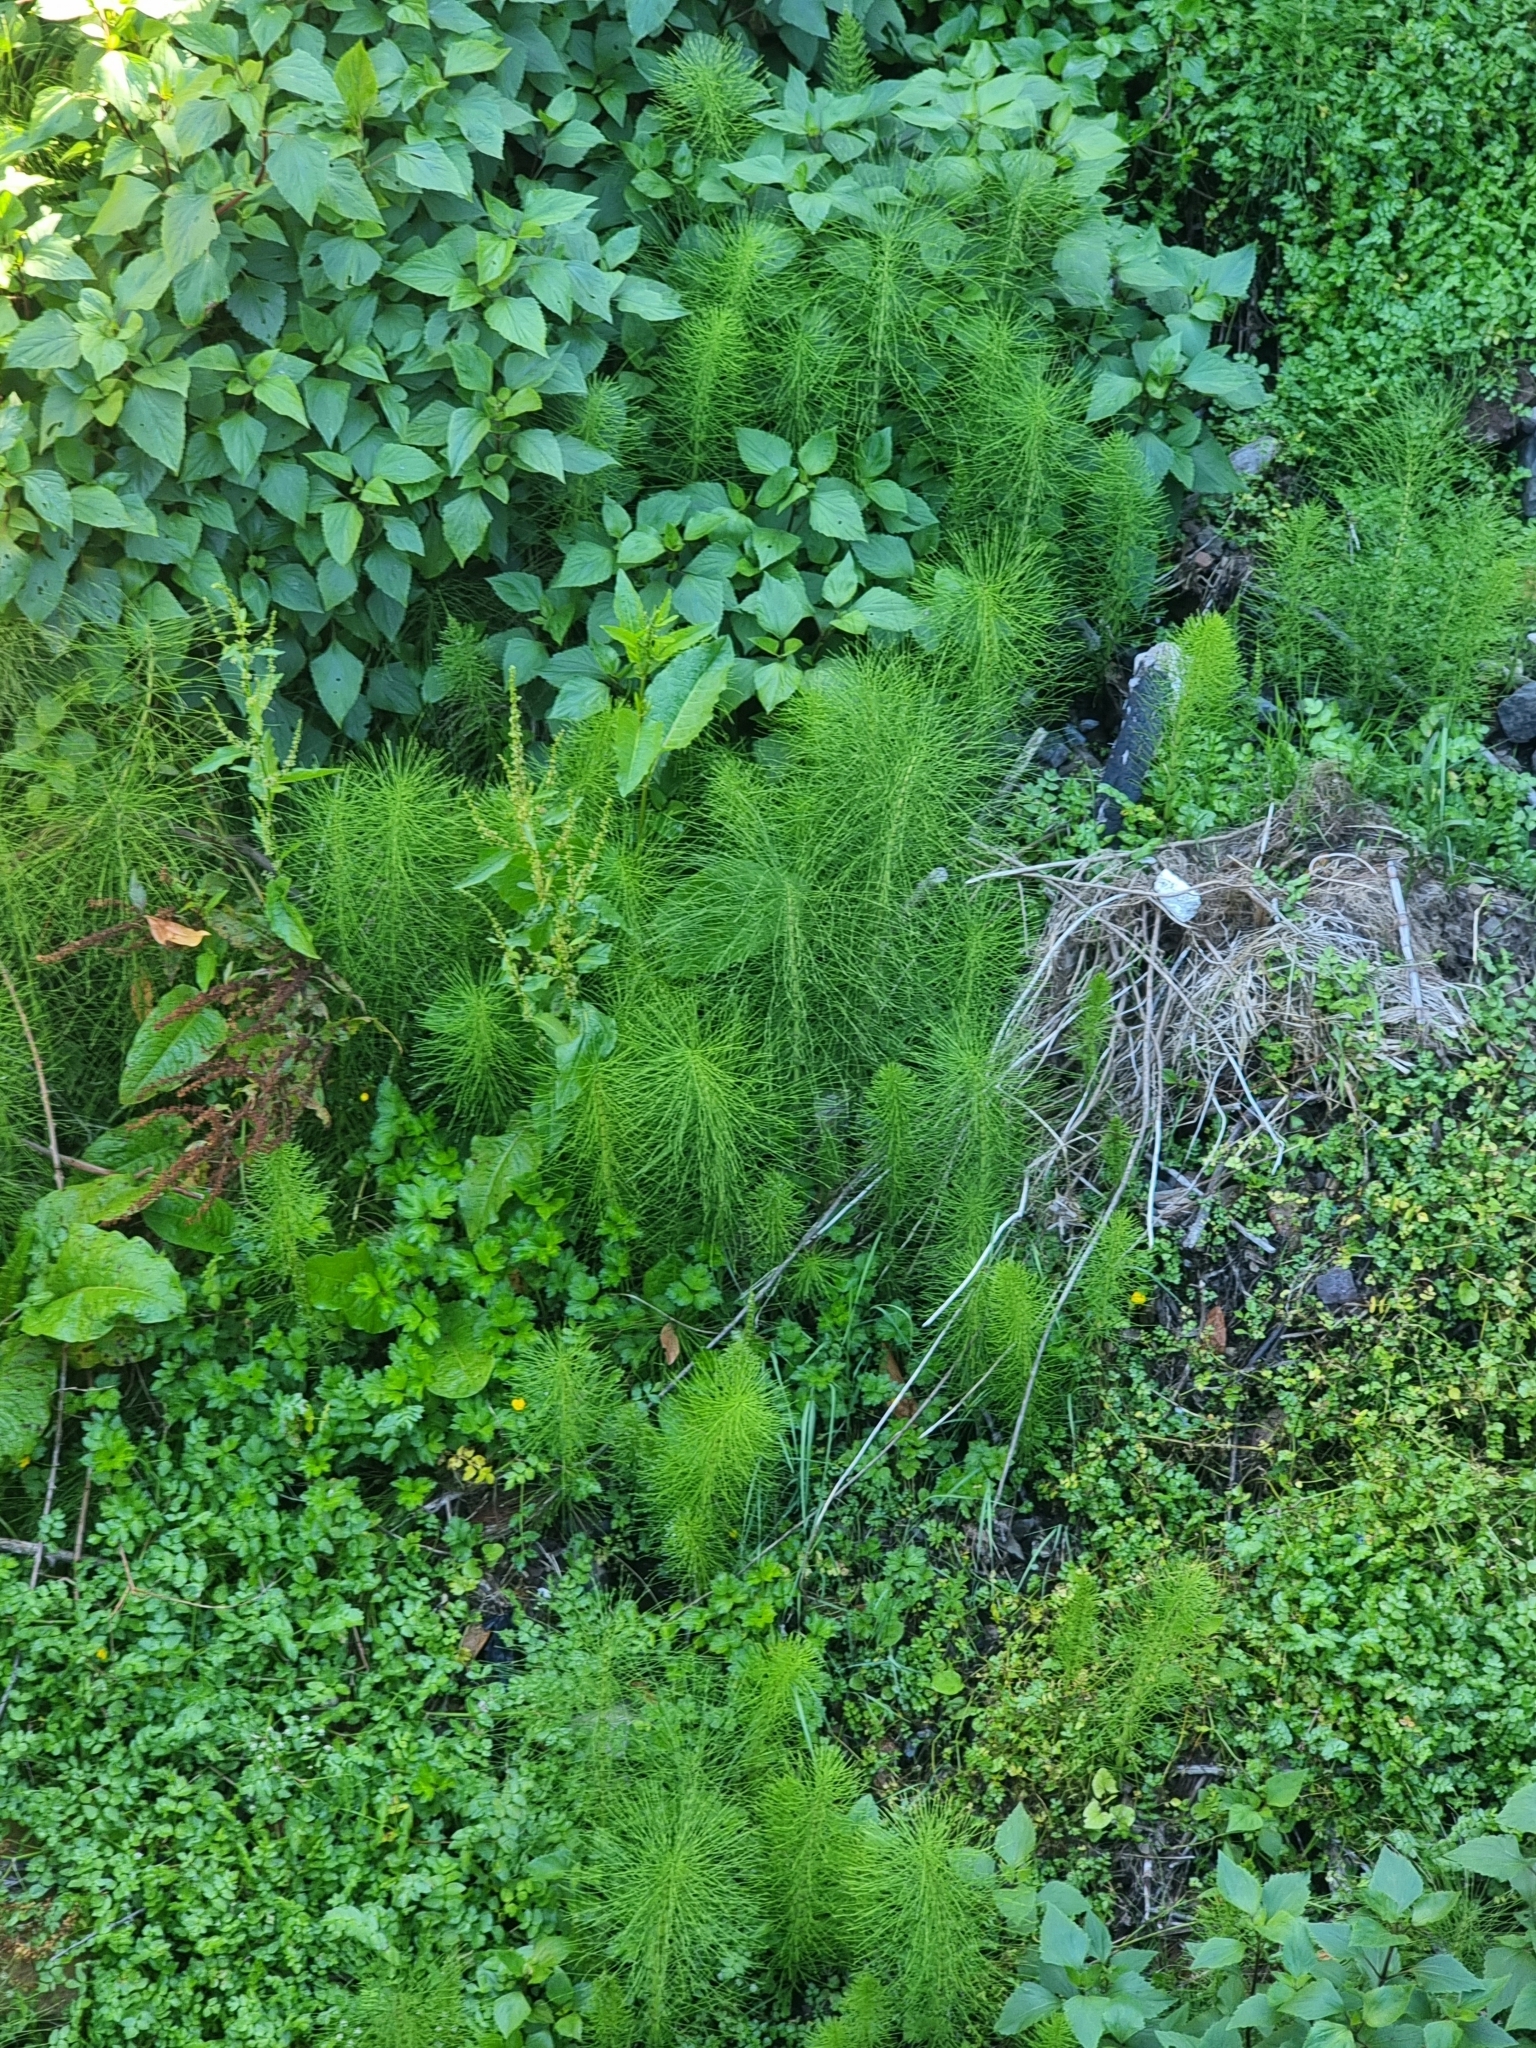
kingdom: Plantae
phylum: Tracheophyta
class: Polypodiopsida
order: Equisetales
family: Equisetaceae
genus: Equisetum
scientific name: Equisetum telmateia
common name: Great horsetail
